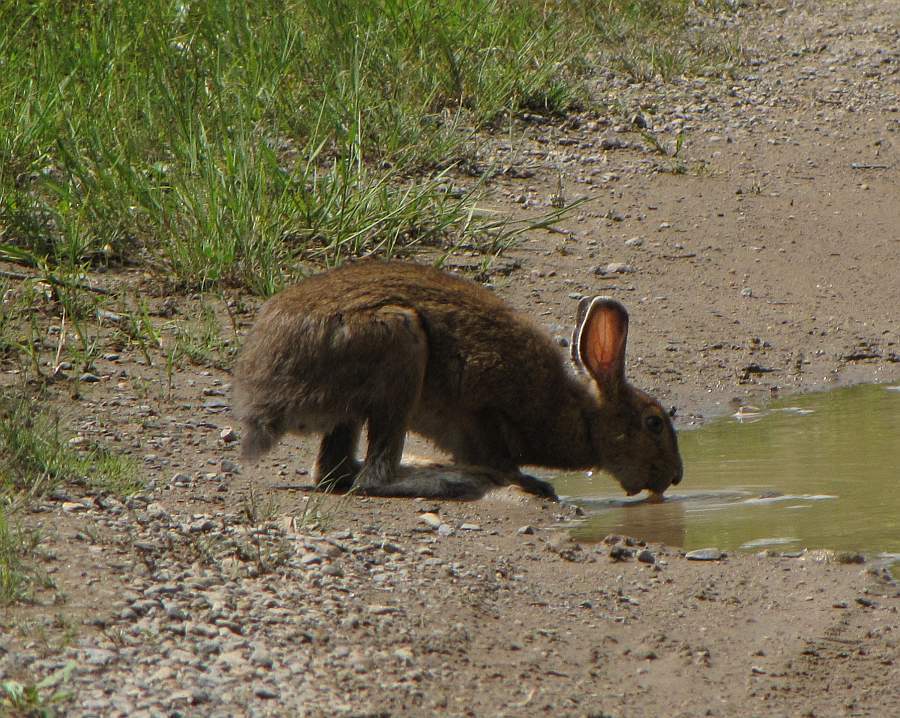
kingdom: Animalia
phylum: Chordata
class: Mammalia
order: Lagomorpha
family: Leporidae
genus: Lepus
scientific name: Lepus americanus
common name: Snowshoe hare
